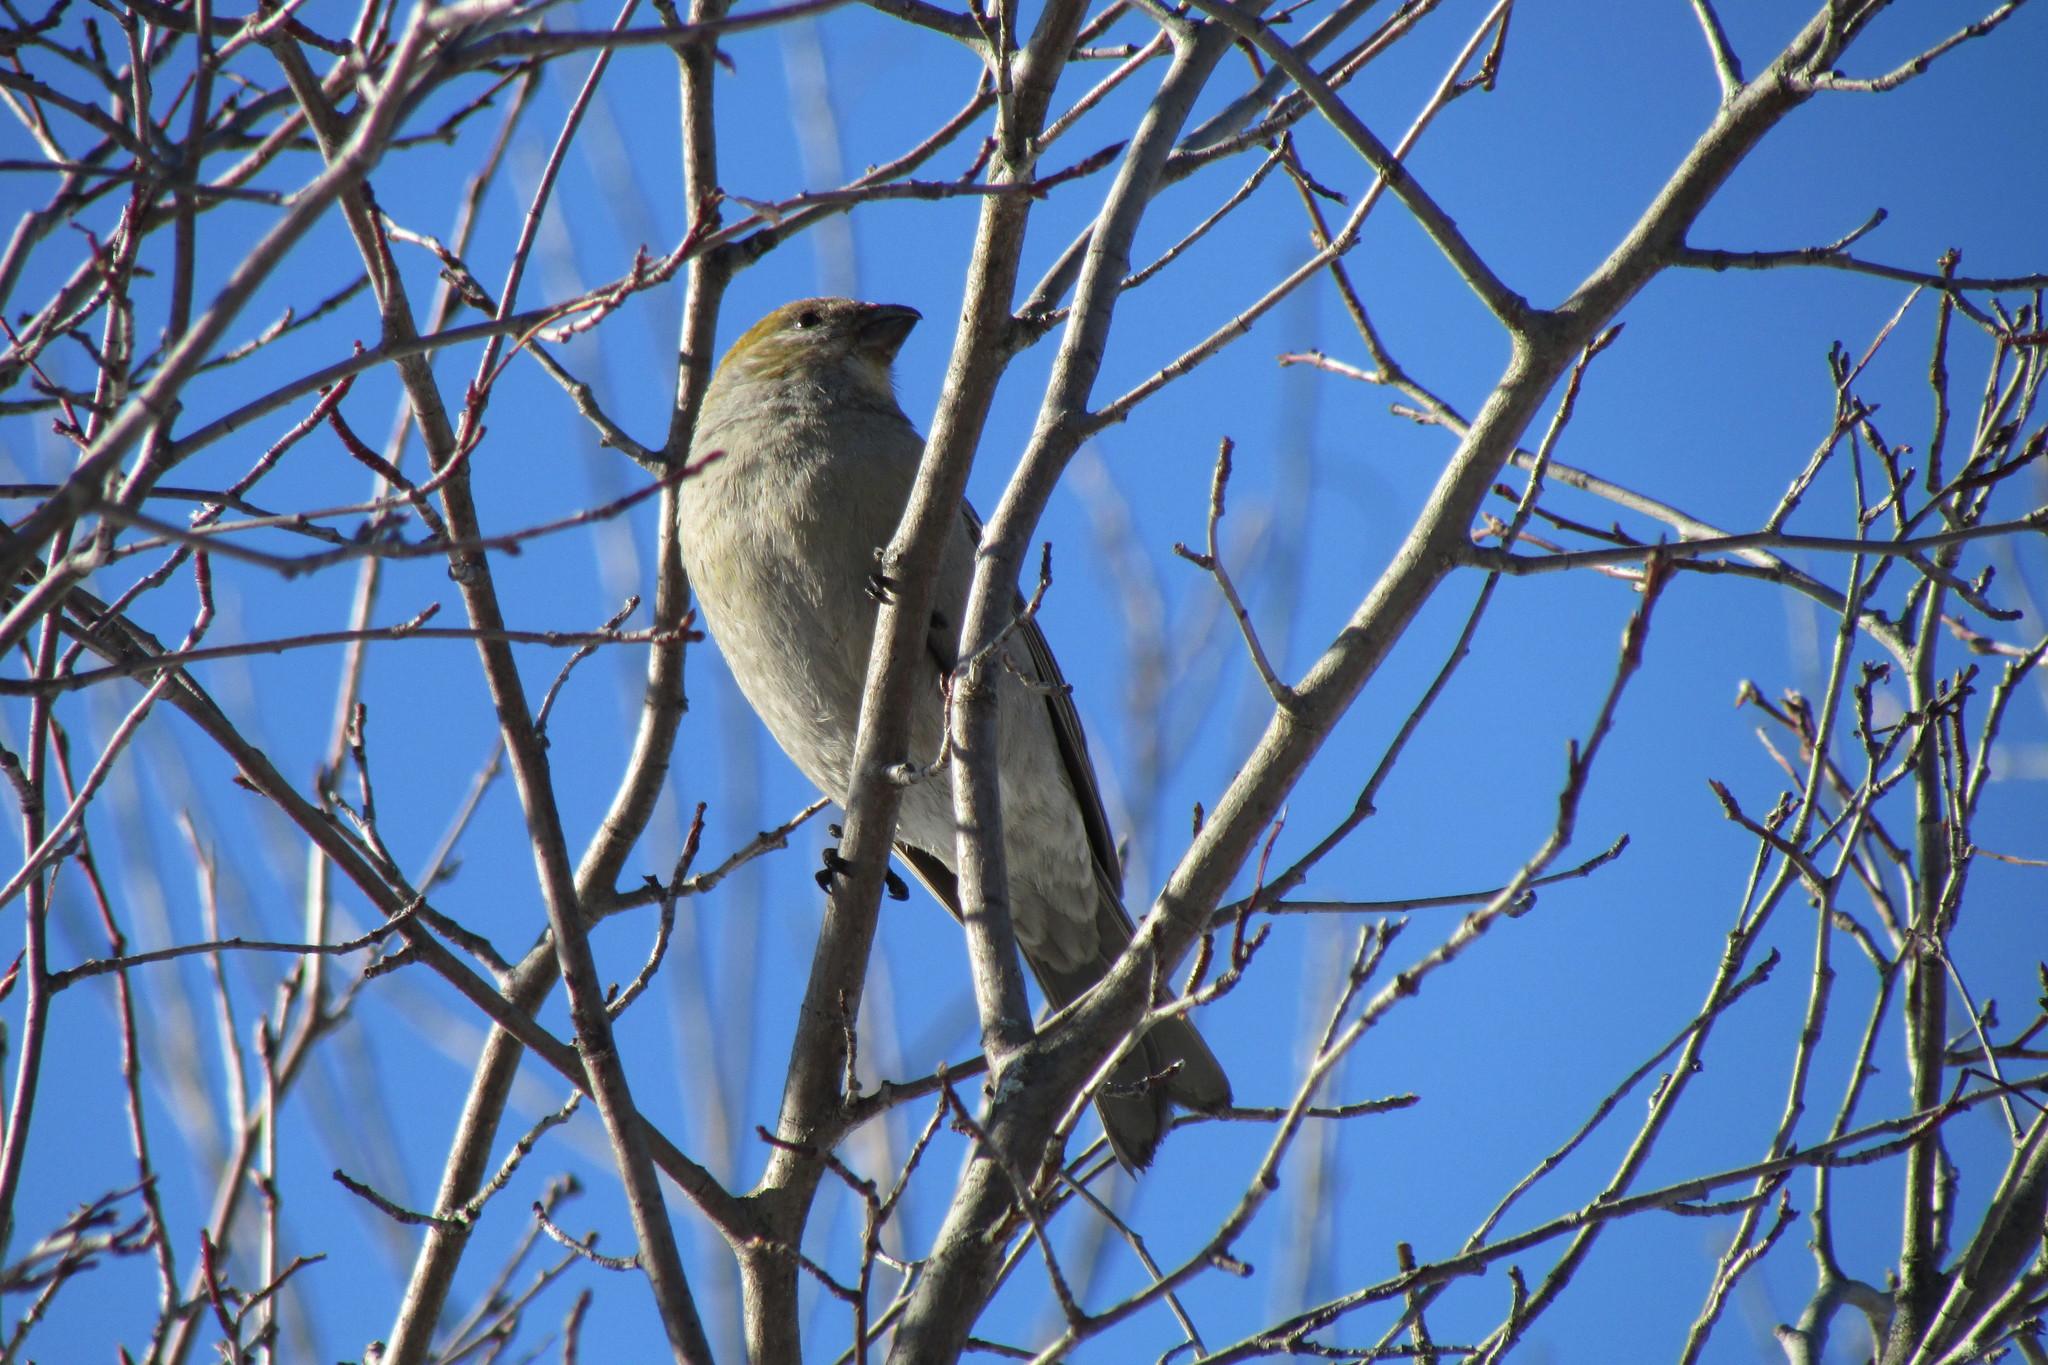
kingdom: Animalia
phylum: Chordata
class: Aves
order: Passeriformes
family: Fringillidae
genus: Pinicola
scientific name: Pinicola enucleator
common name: Pine grosbeak
